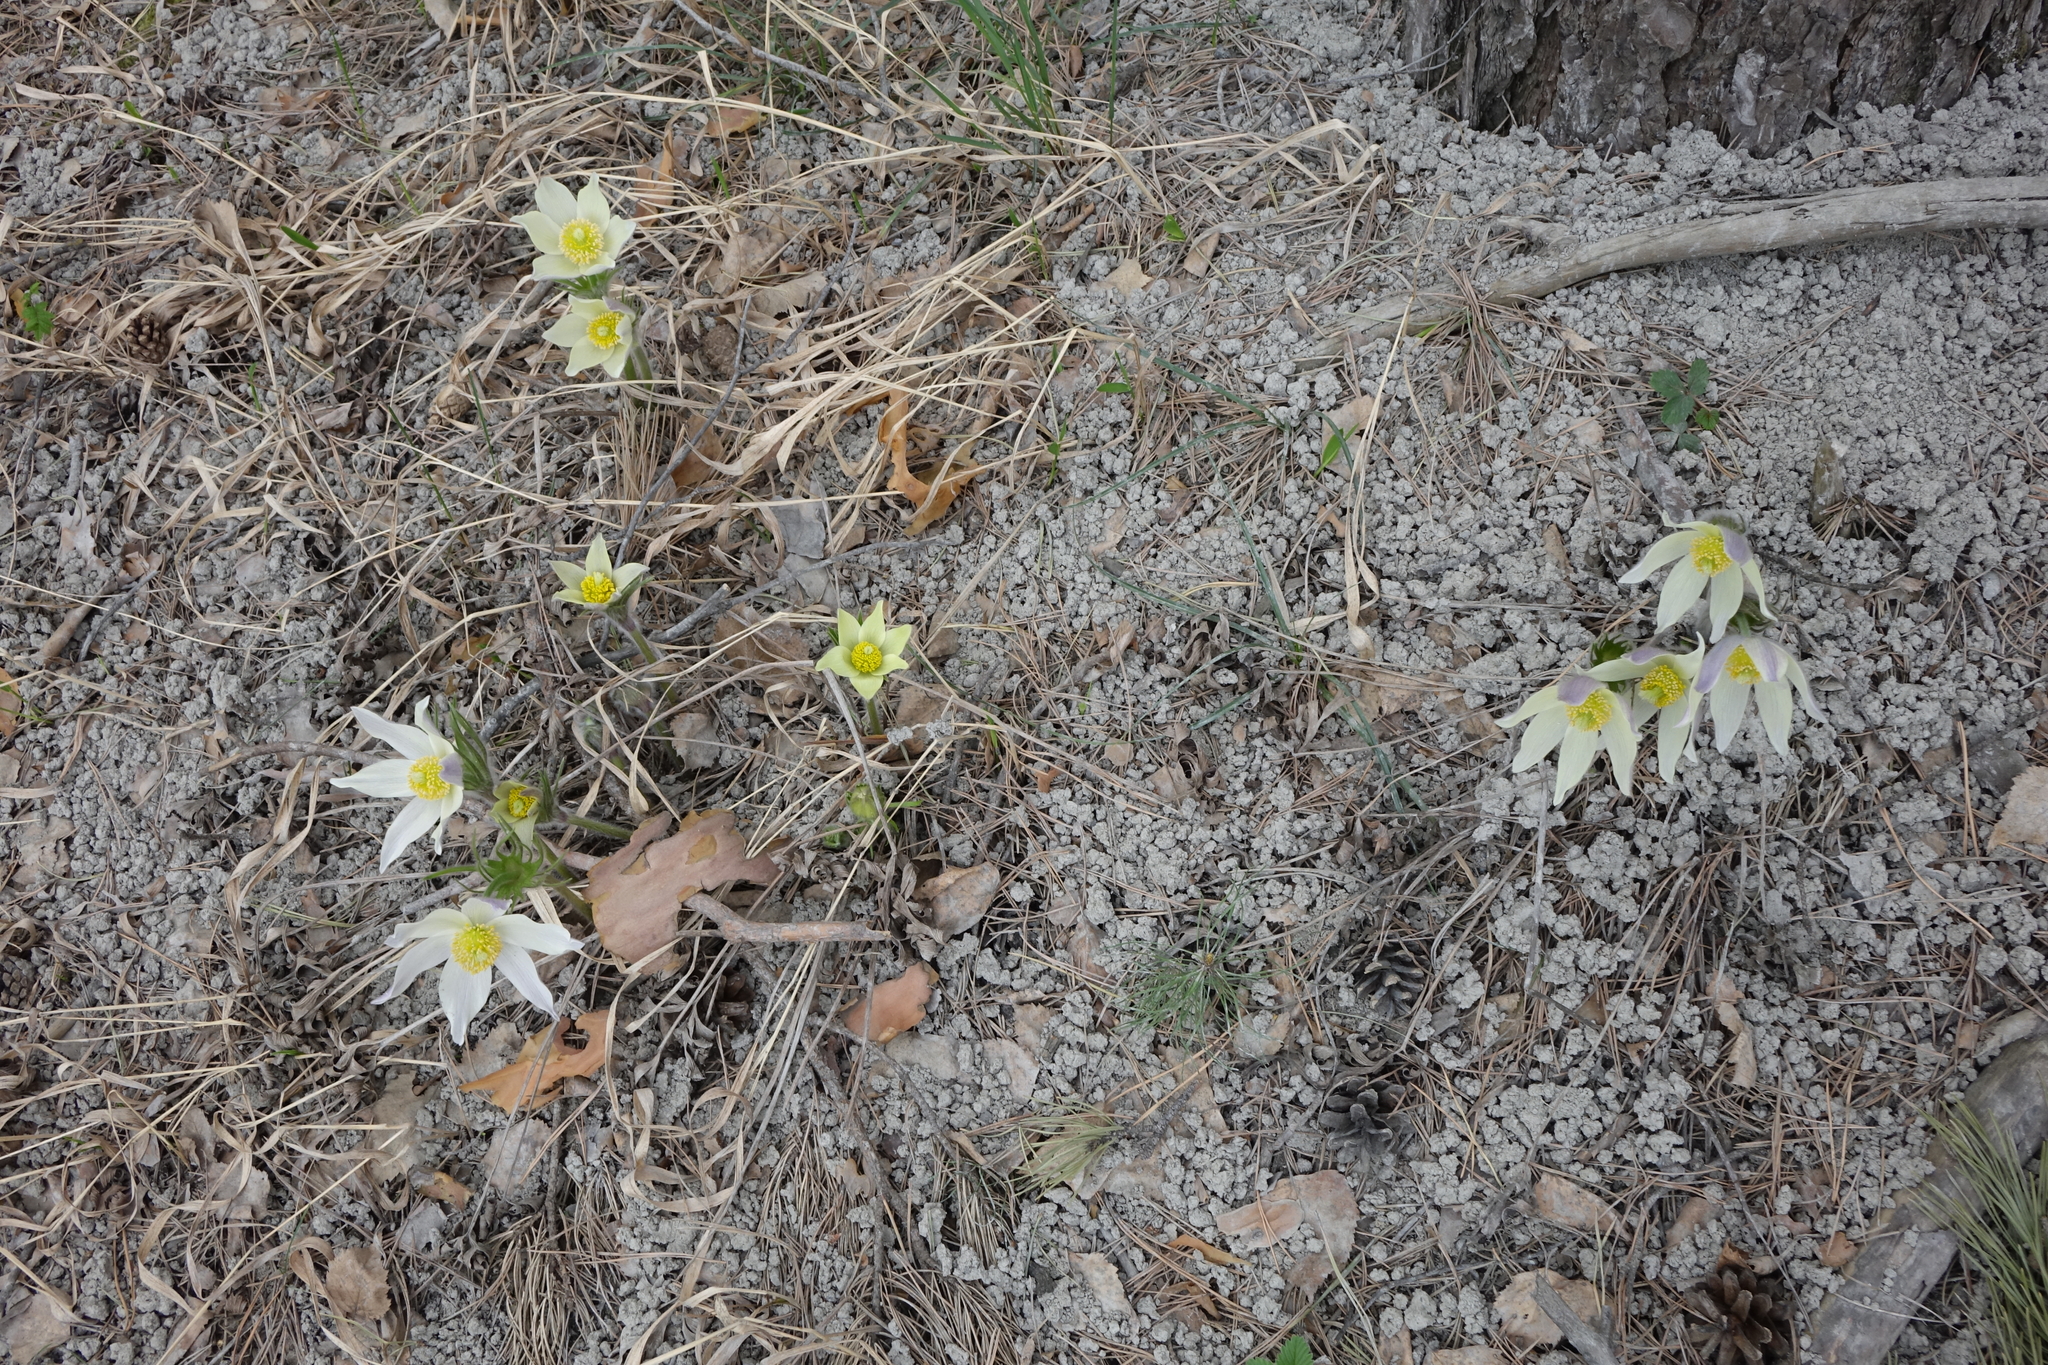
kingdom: Plantae
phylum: Tracheophyta
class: Magnoliopsida
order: Ranunculales
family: Ranunculaceae
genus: Pulsatilla
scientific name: Pulsatilla patens
